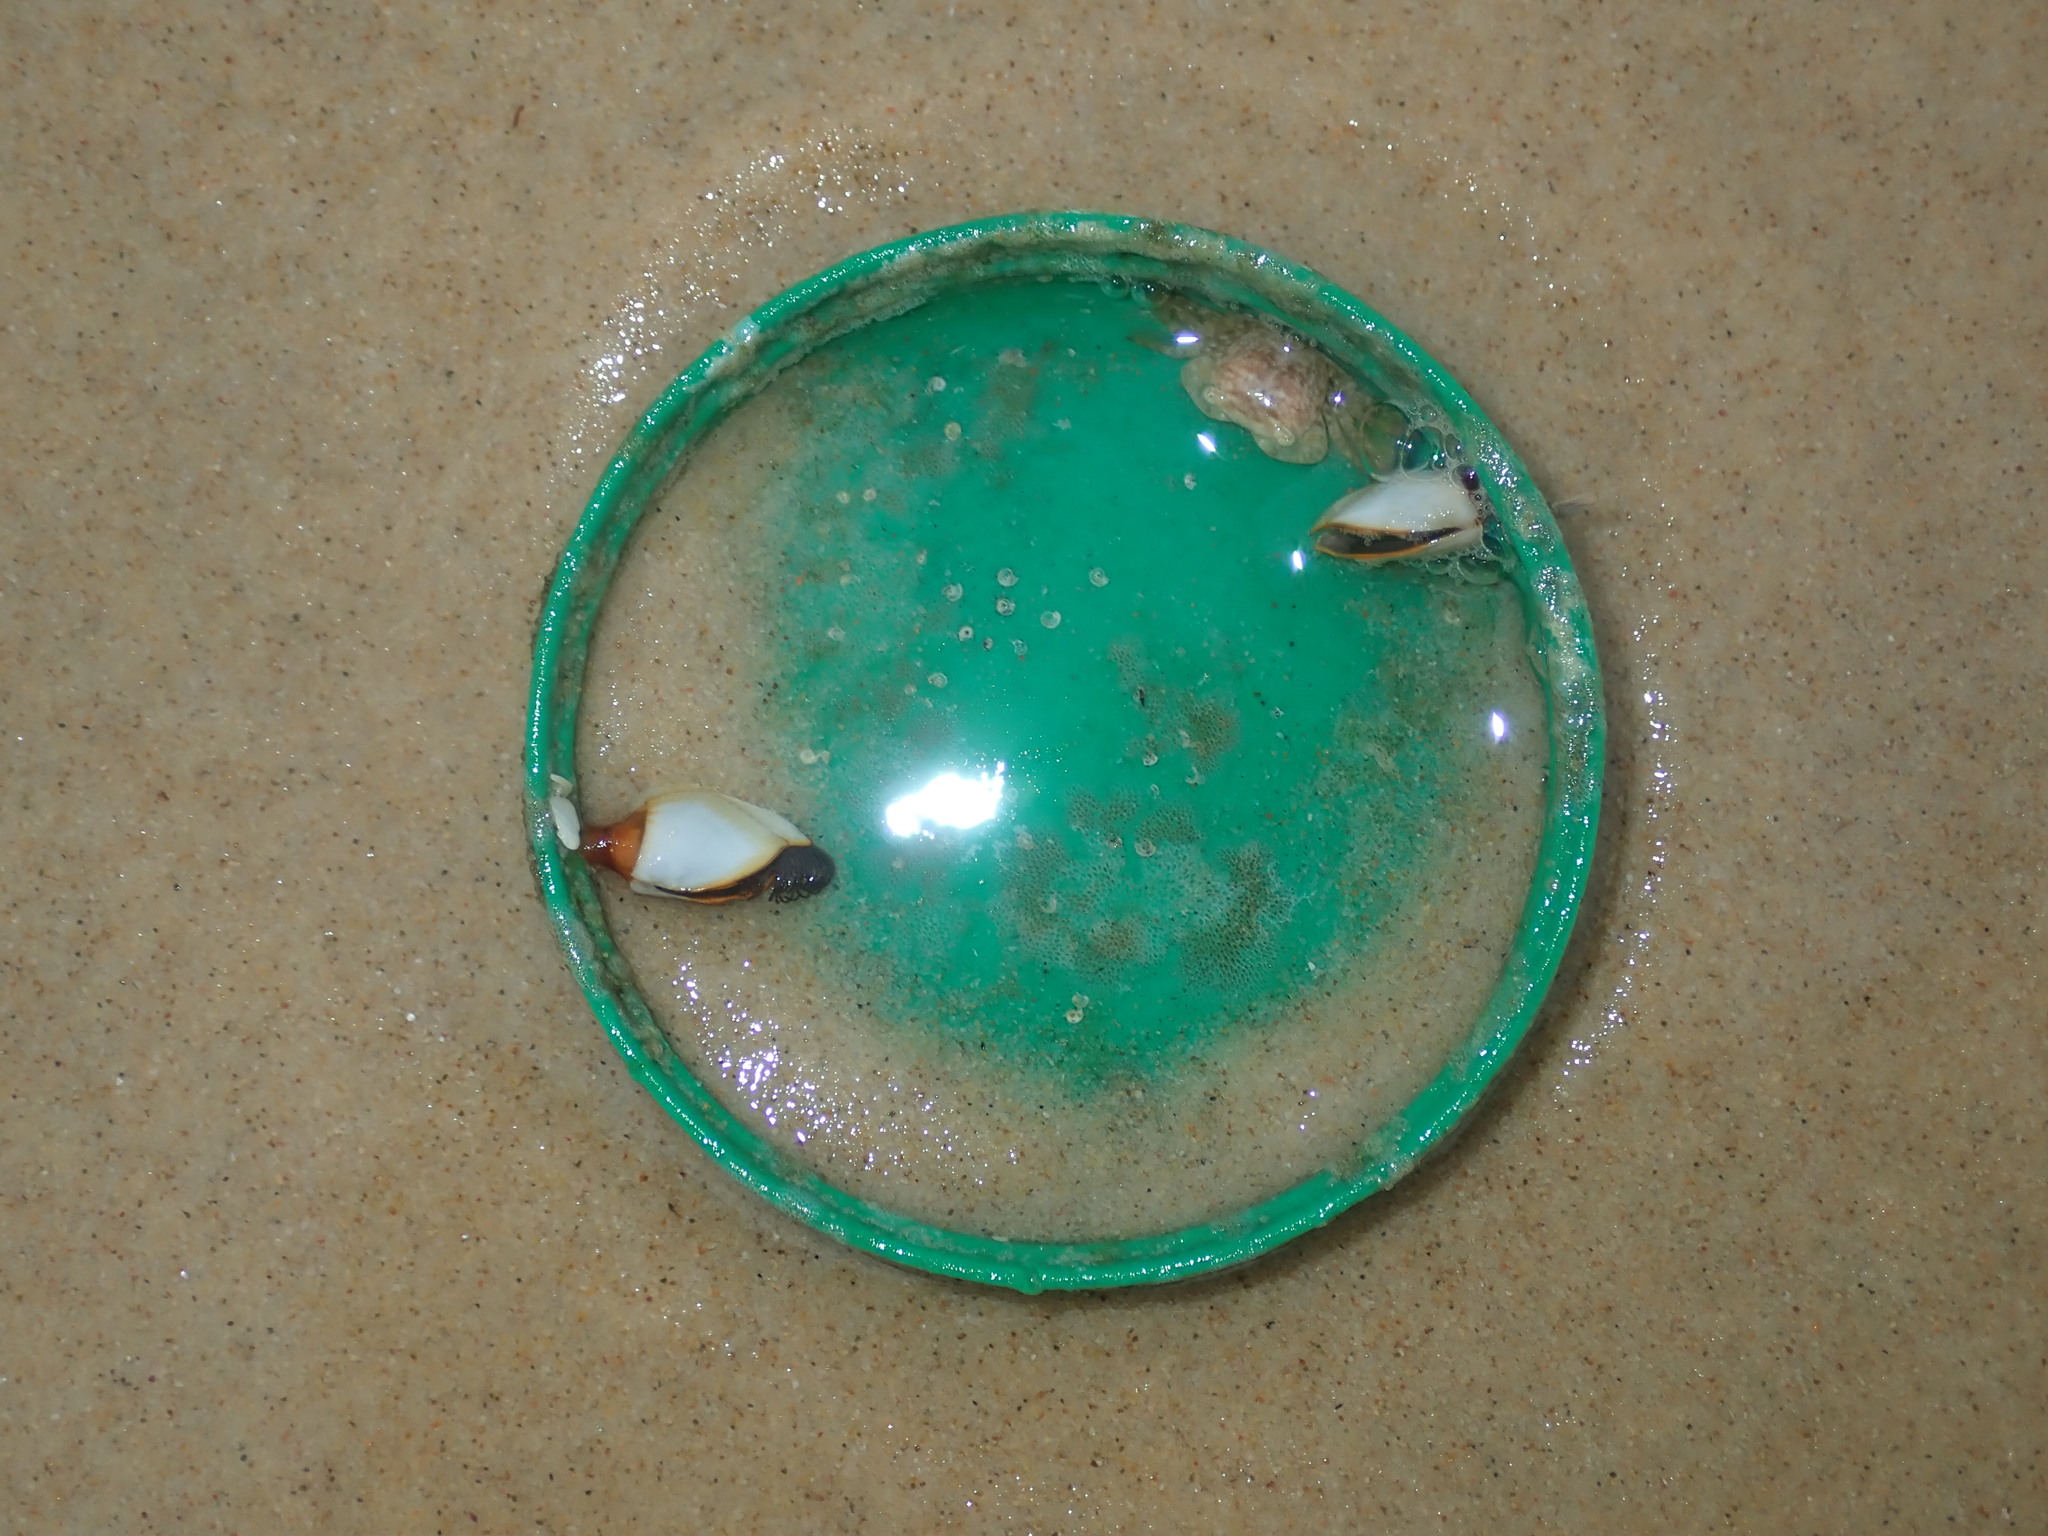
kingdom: Animalia
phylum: Arthropoda
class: Maxillopoda
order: Pedunculata
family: Lepadidae
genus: Lepas
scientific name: Lepas anserifera
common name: Goose barnacle
